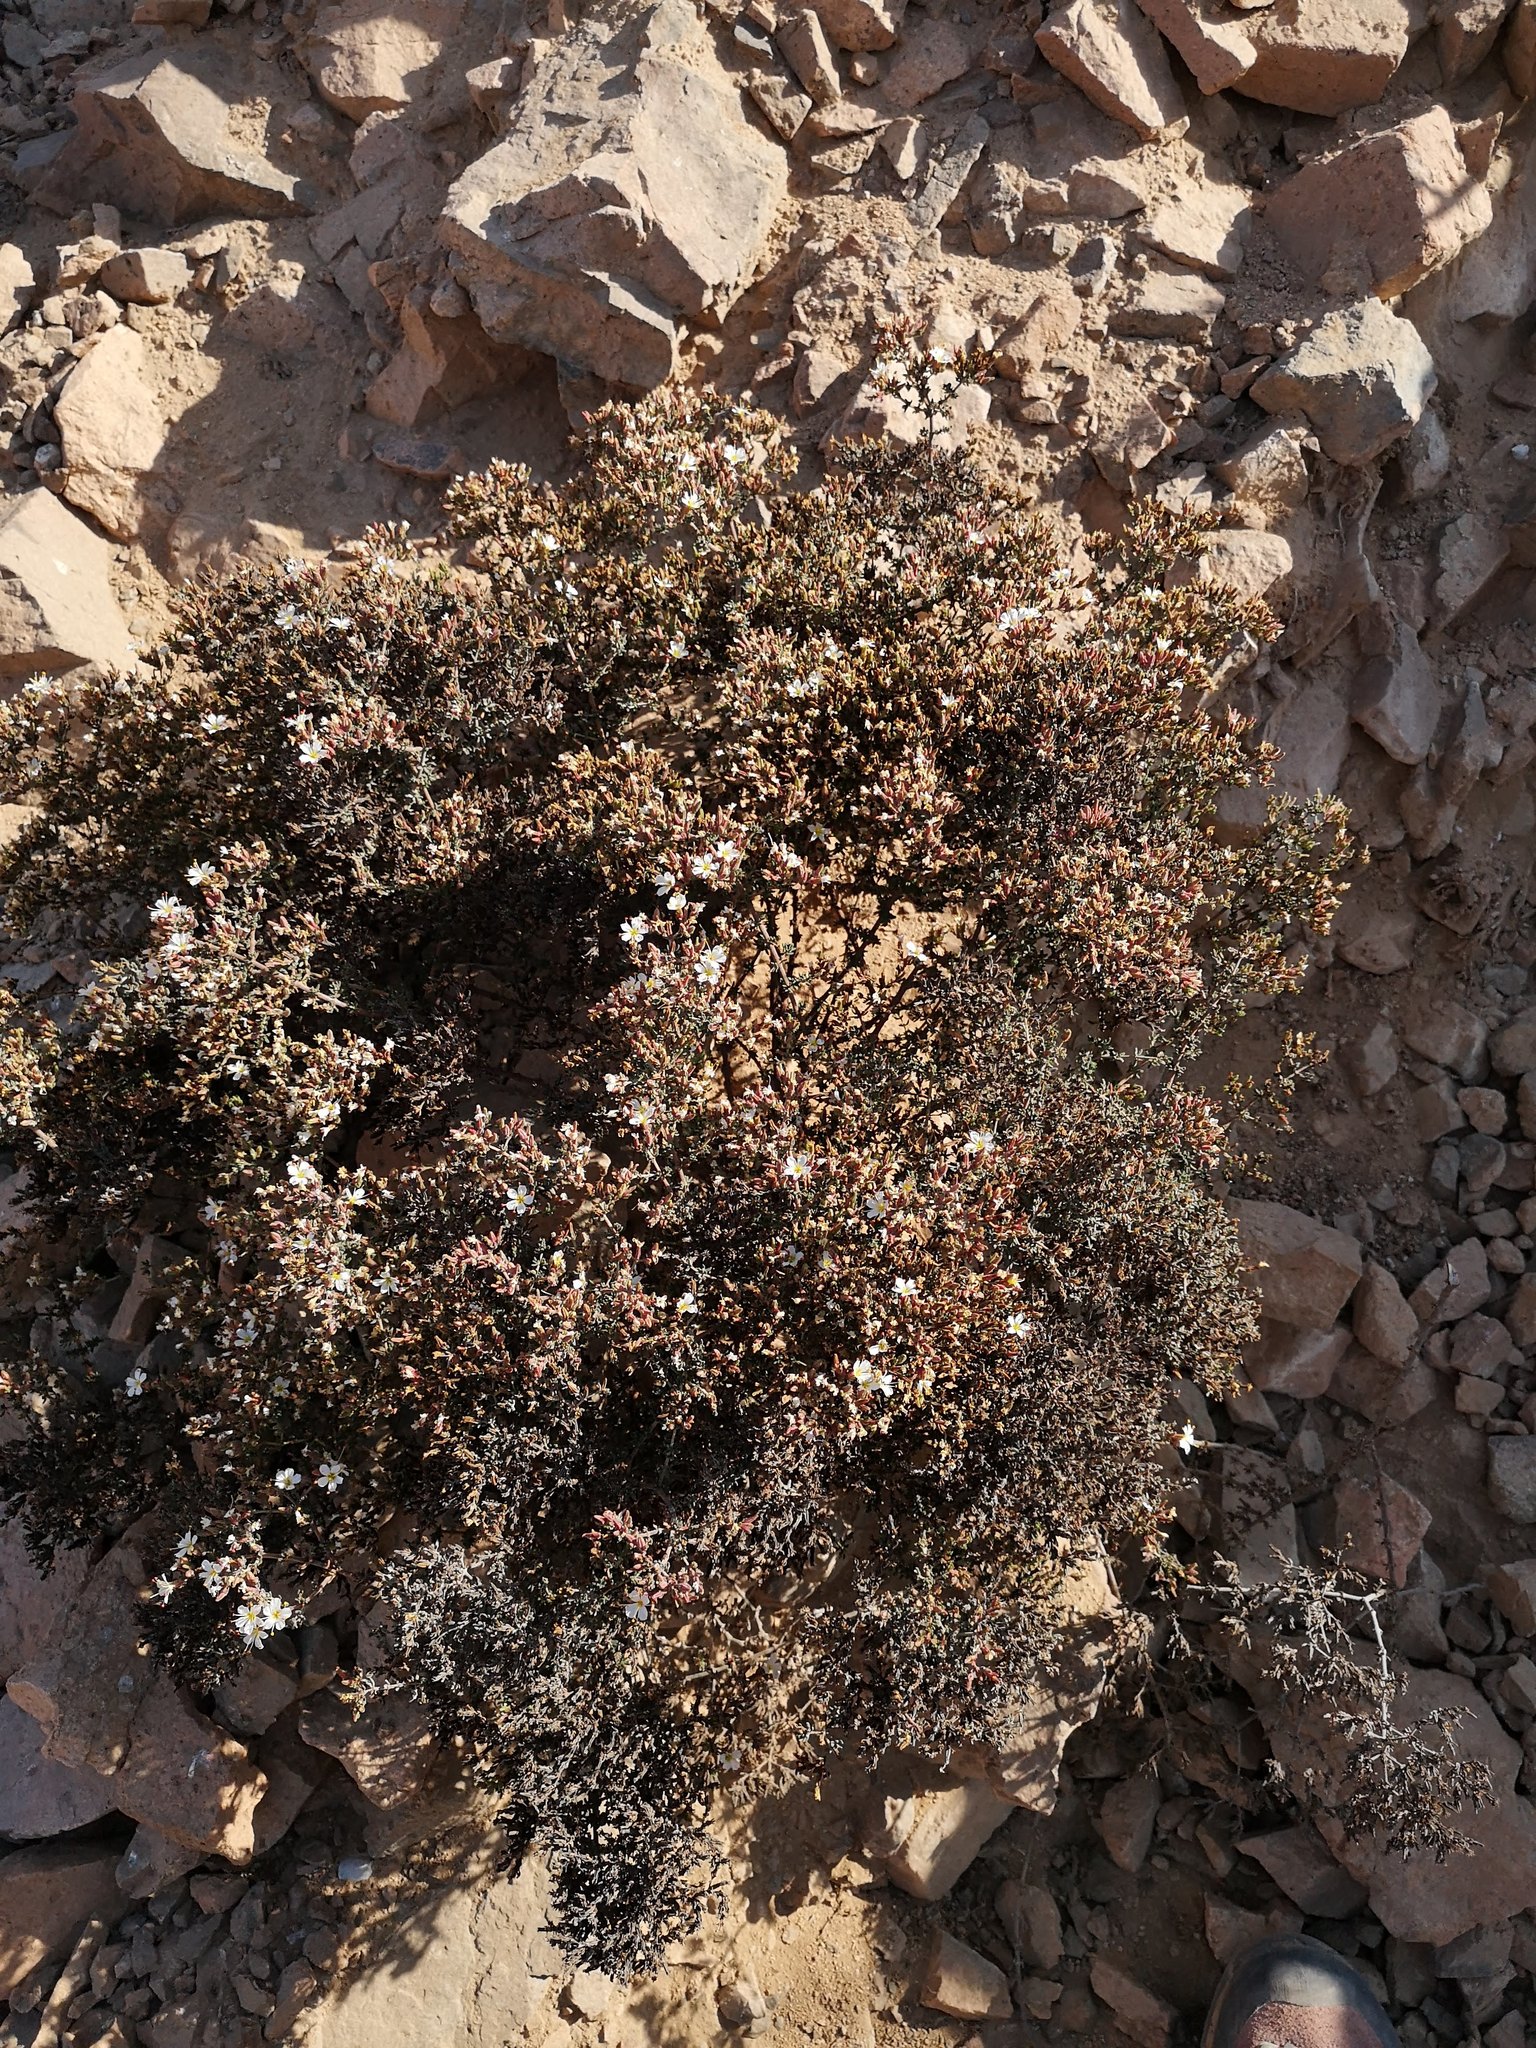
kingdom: Plantae
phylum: Tracheophyta
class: Magnoliopsida
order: Caryophyllales
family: Frankeniaceae
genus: Frankenia
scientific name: Frankenia chilensis
